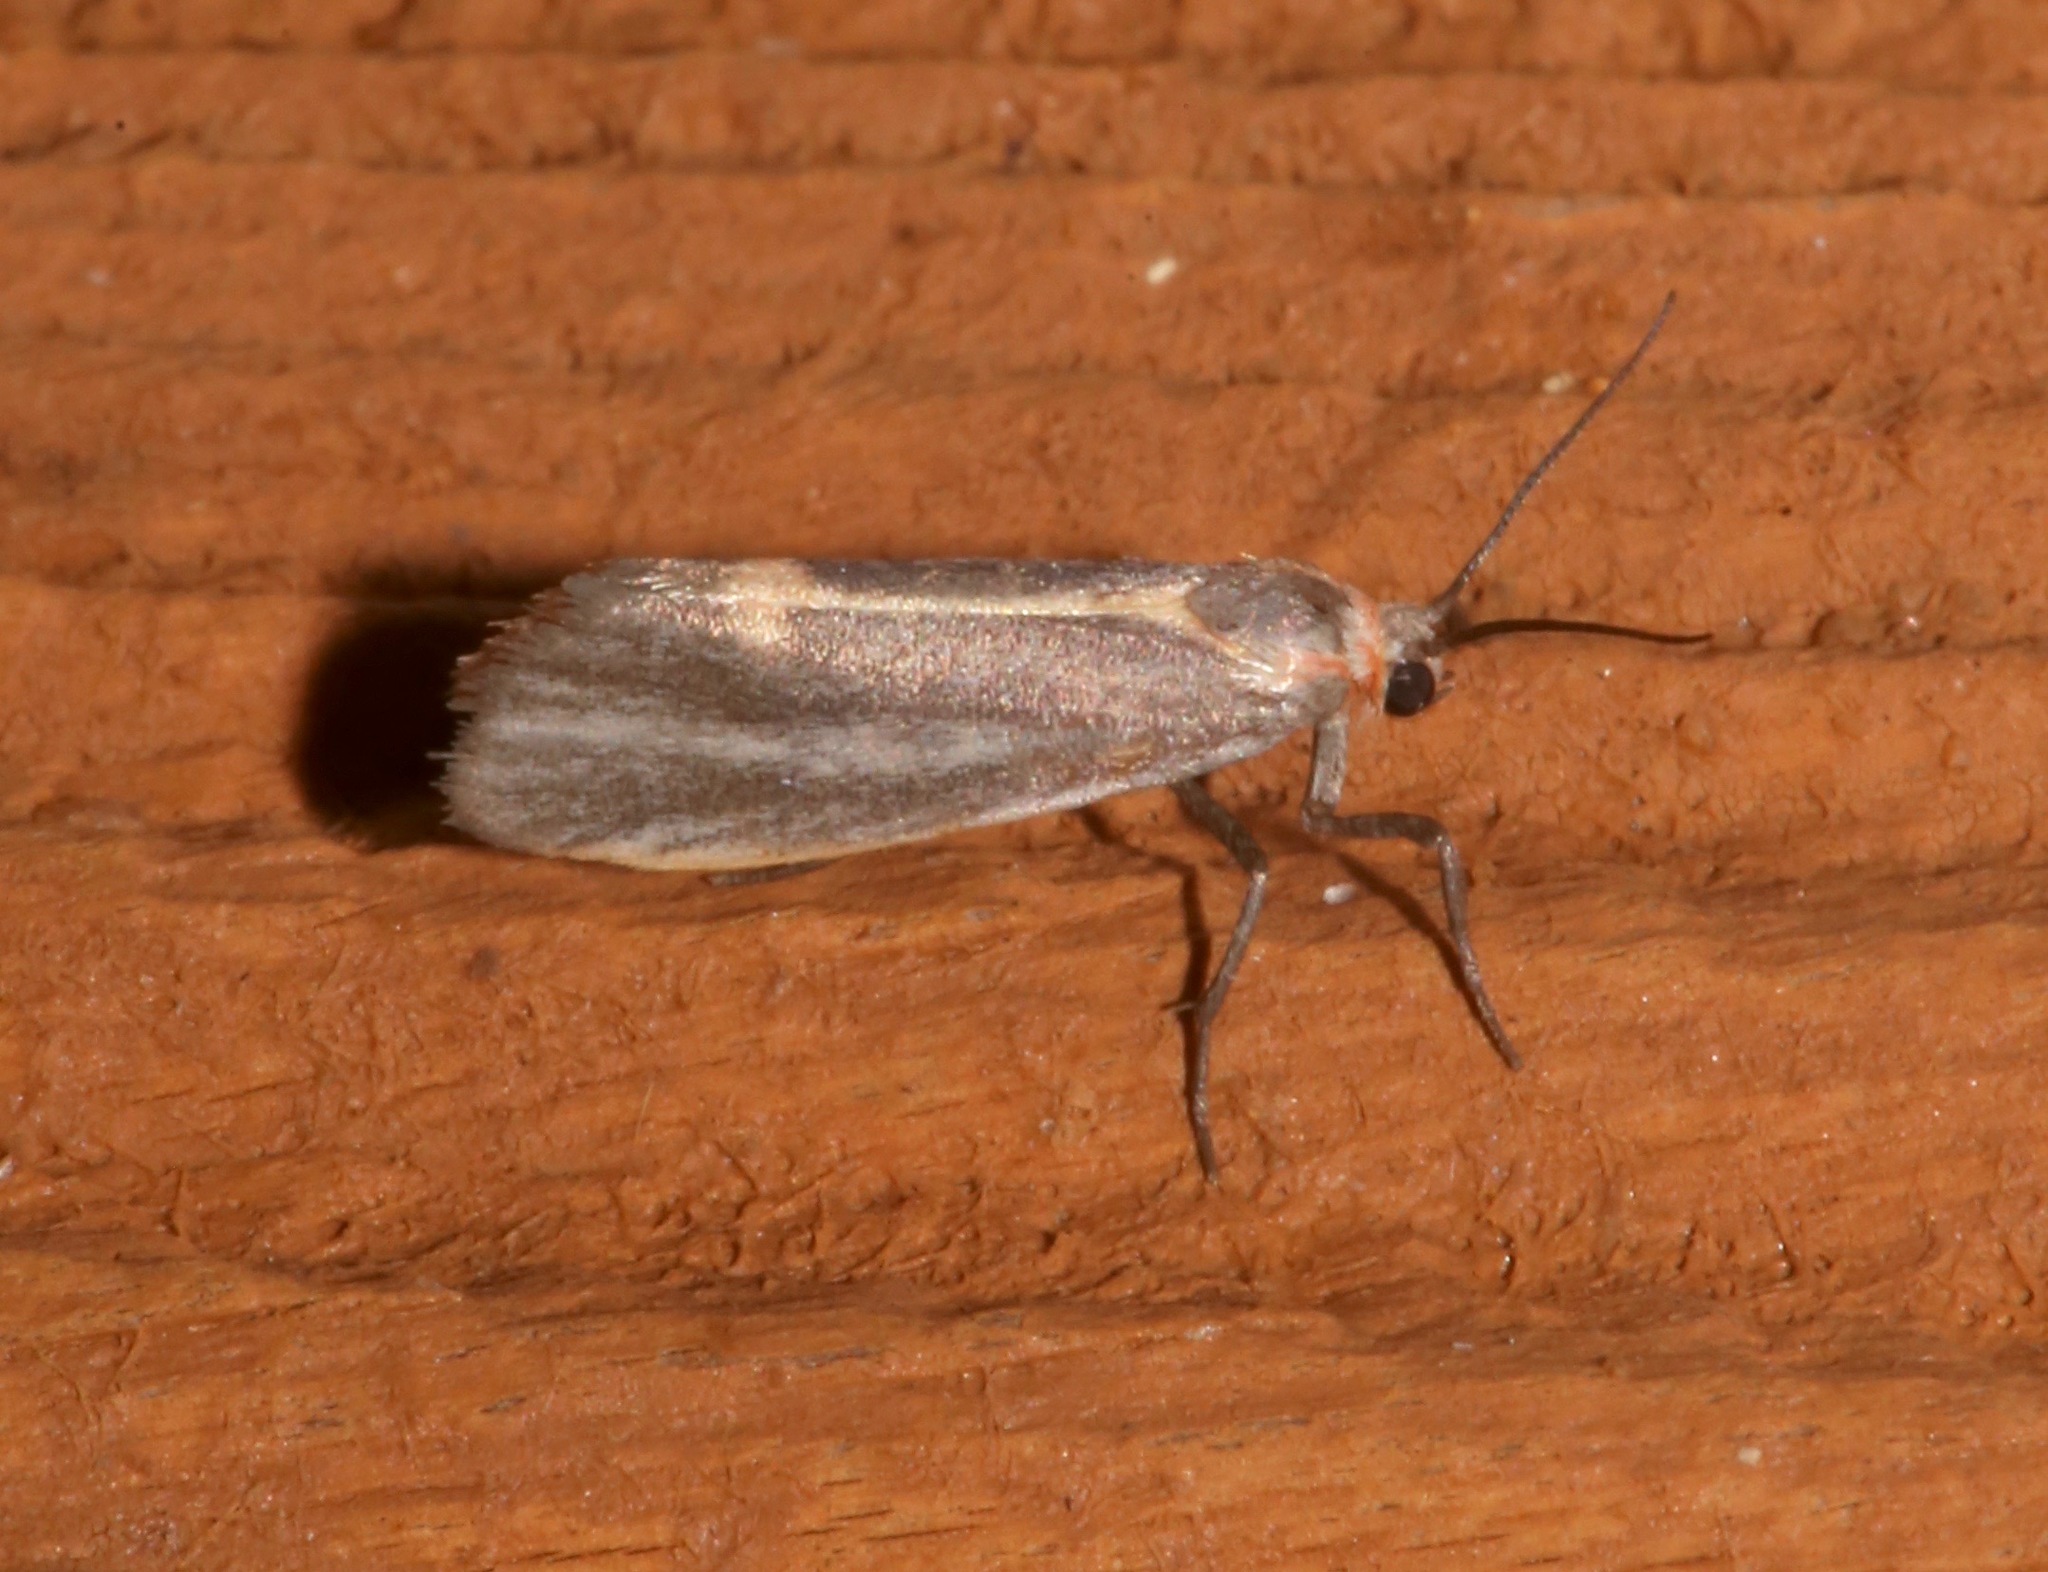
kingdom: Animalia
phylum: Arthropoda
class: Insecta
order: Lepidoptera
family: Erebidae
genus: Cisthene
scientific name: Cisthene striata
